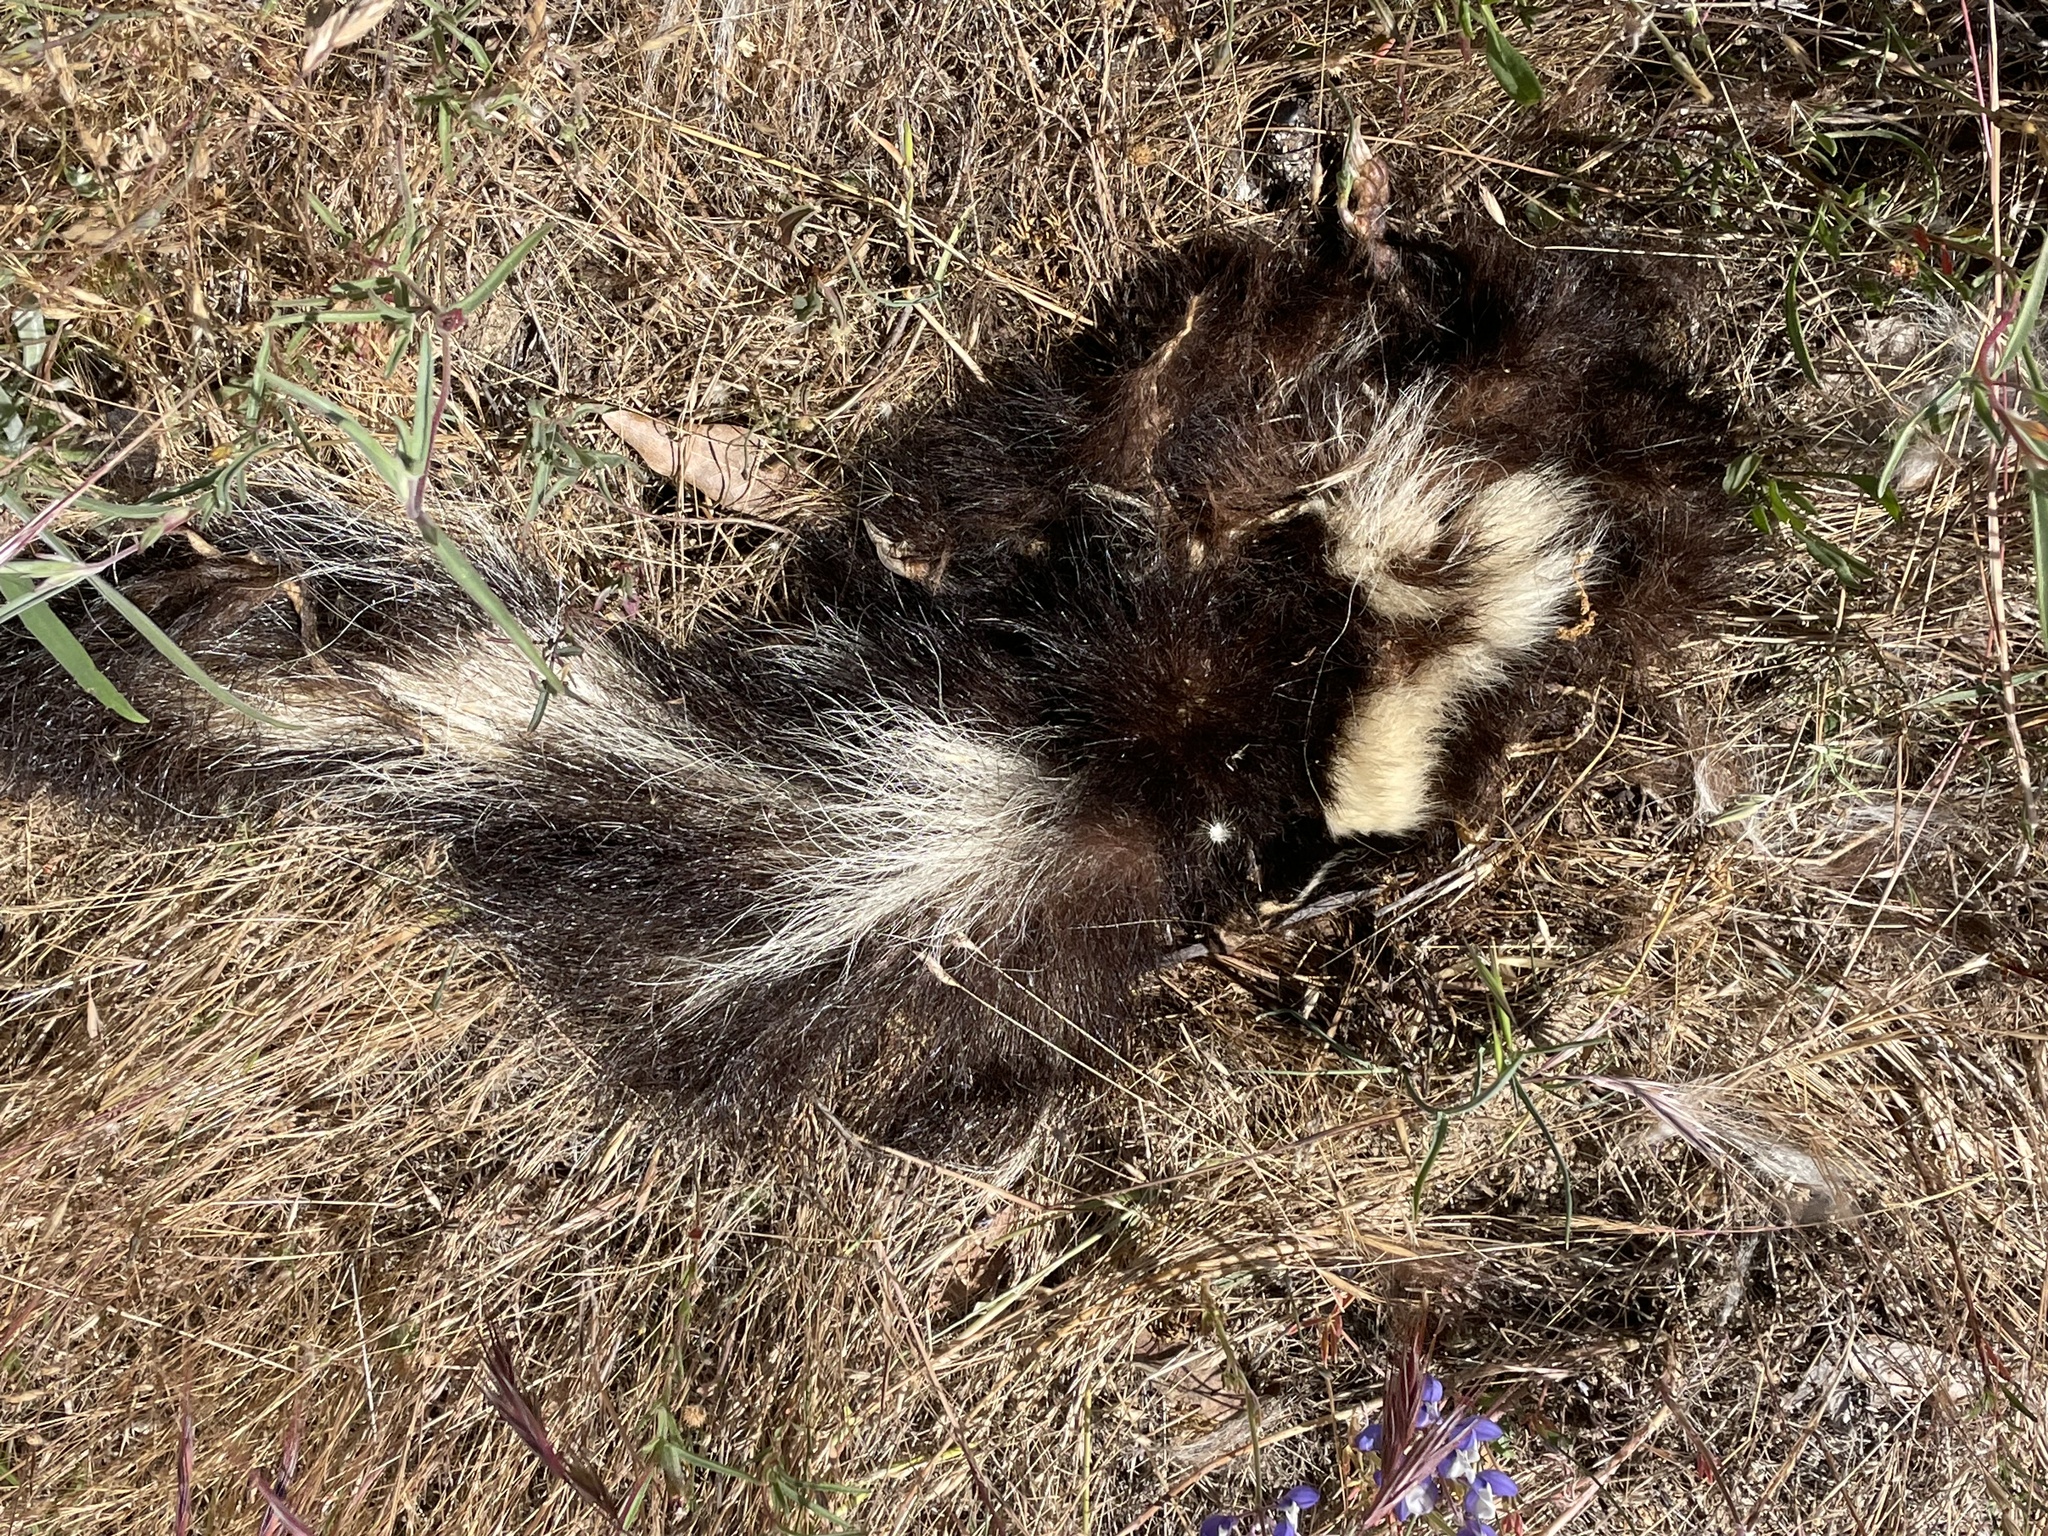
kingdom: Animalia
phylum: Chordata
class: Mammalia
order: Carnivora
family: Mephitidae
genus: Mephitis
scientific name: Mephitis mephitis
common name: Striped skunk
